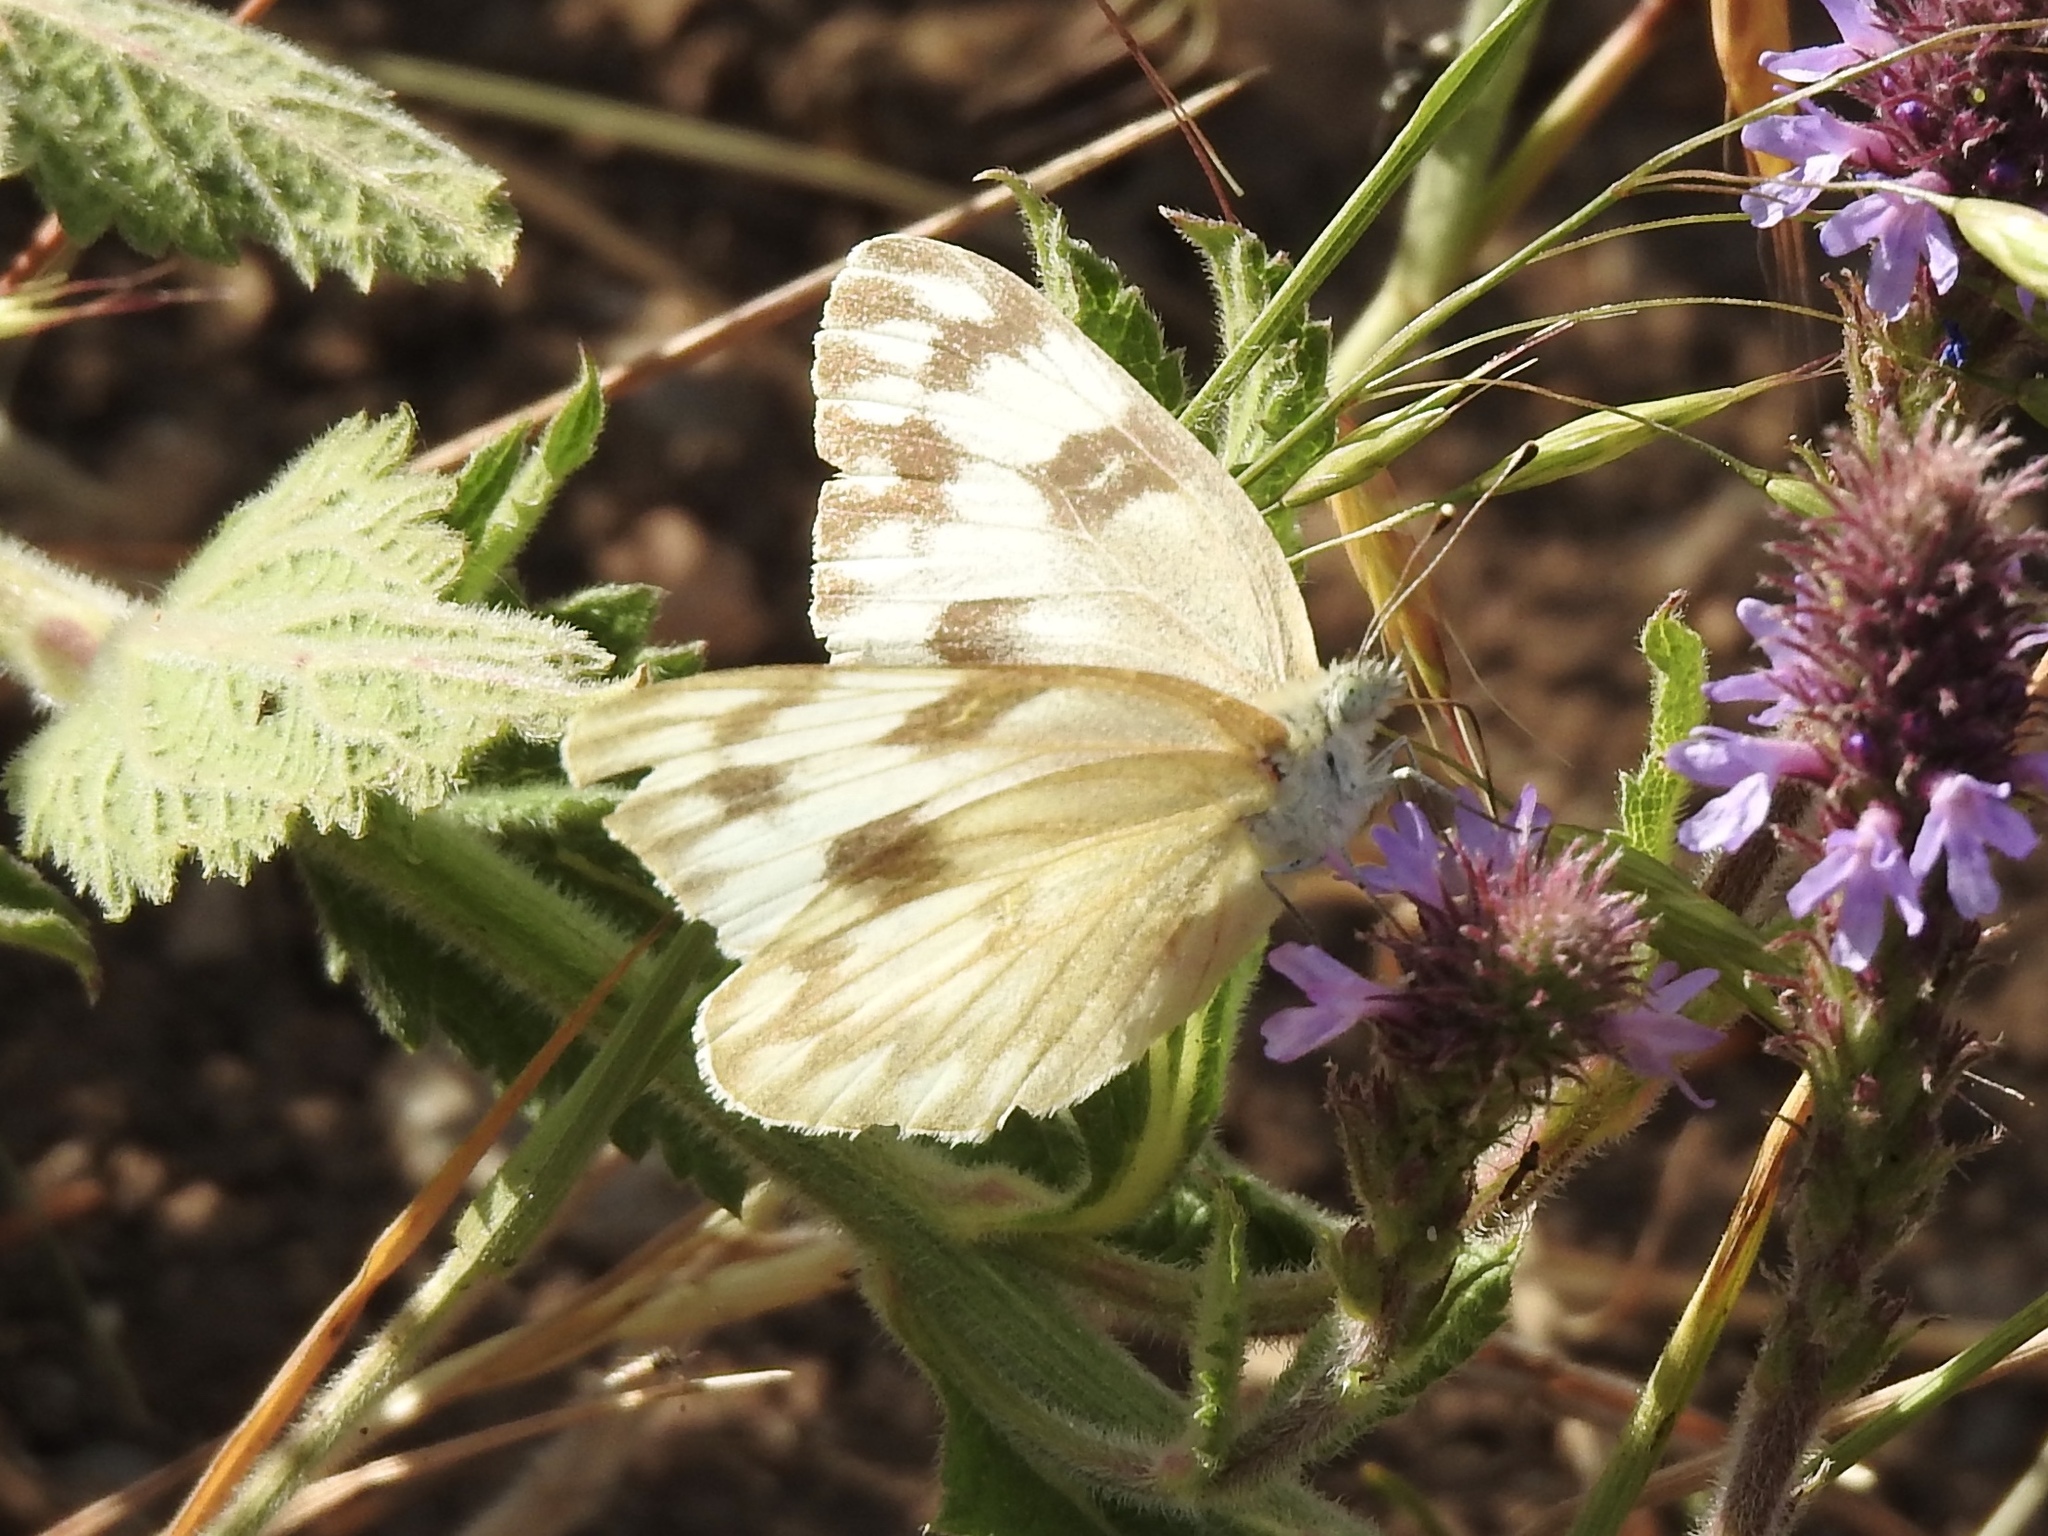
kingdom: Animalia
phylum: Arthropoda
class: Insecta
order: Lepidoptera
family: Pieridae
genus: Pontia
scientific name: Pontia protodice
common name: Checkered white
